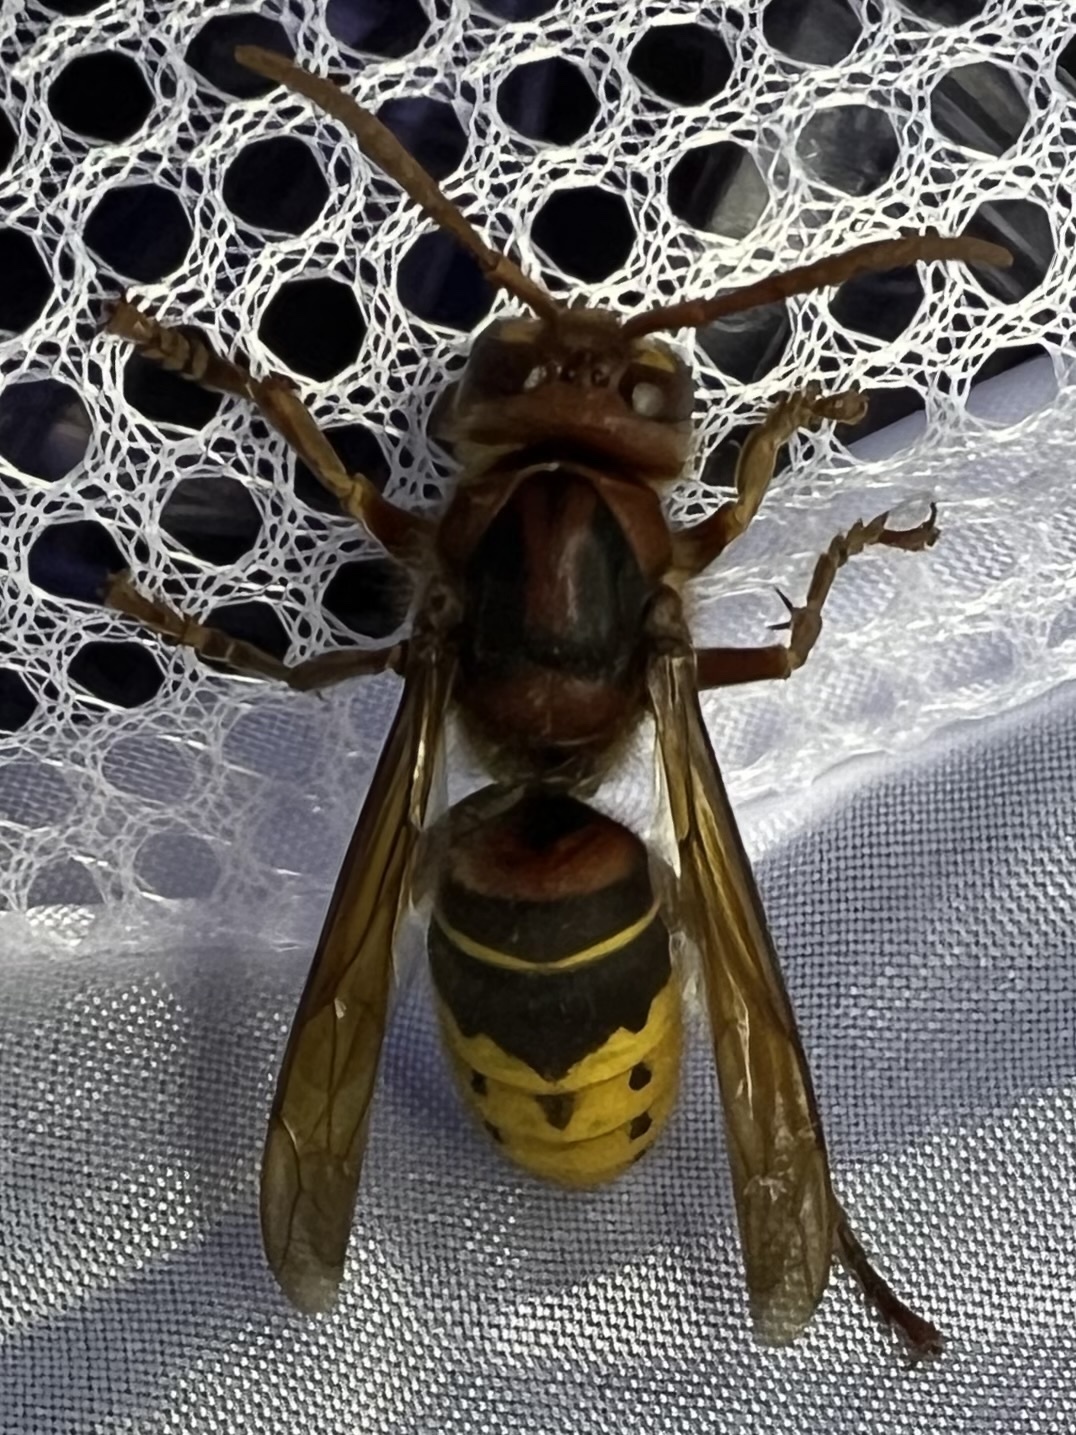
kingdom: Animalia
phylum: Arthropoda
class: Insecta
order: Hymenoptera
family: Vespidae
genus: Vespa
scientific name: Vespa crabro
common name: Hornet
